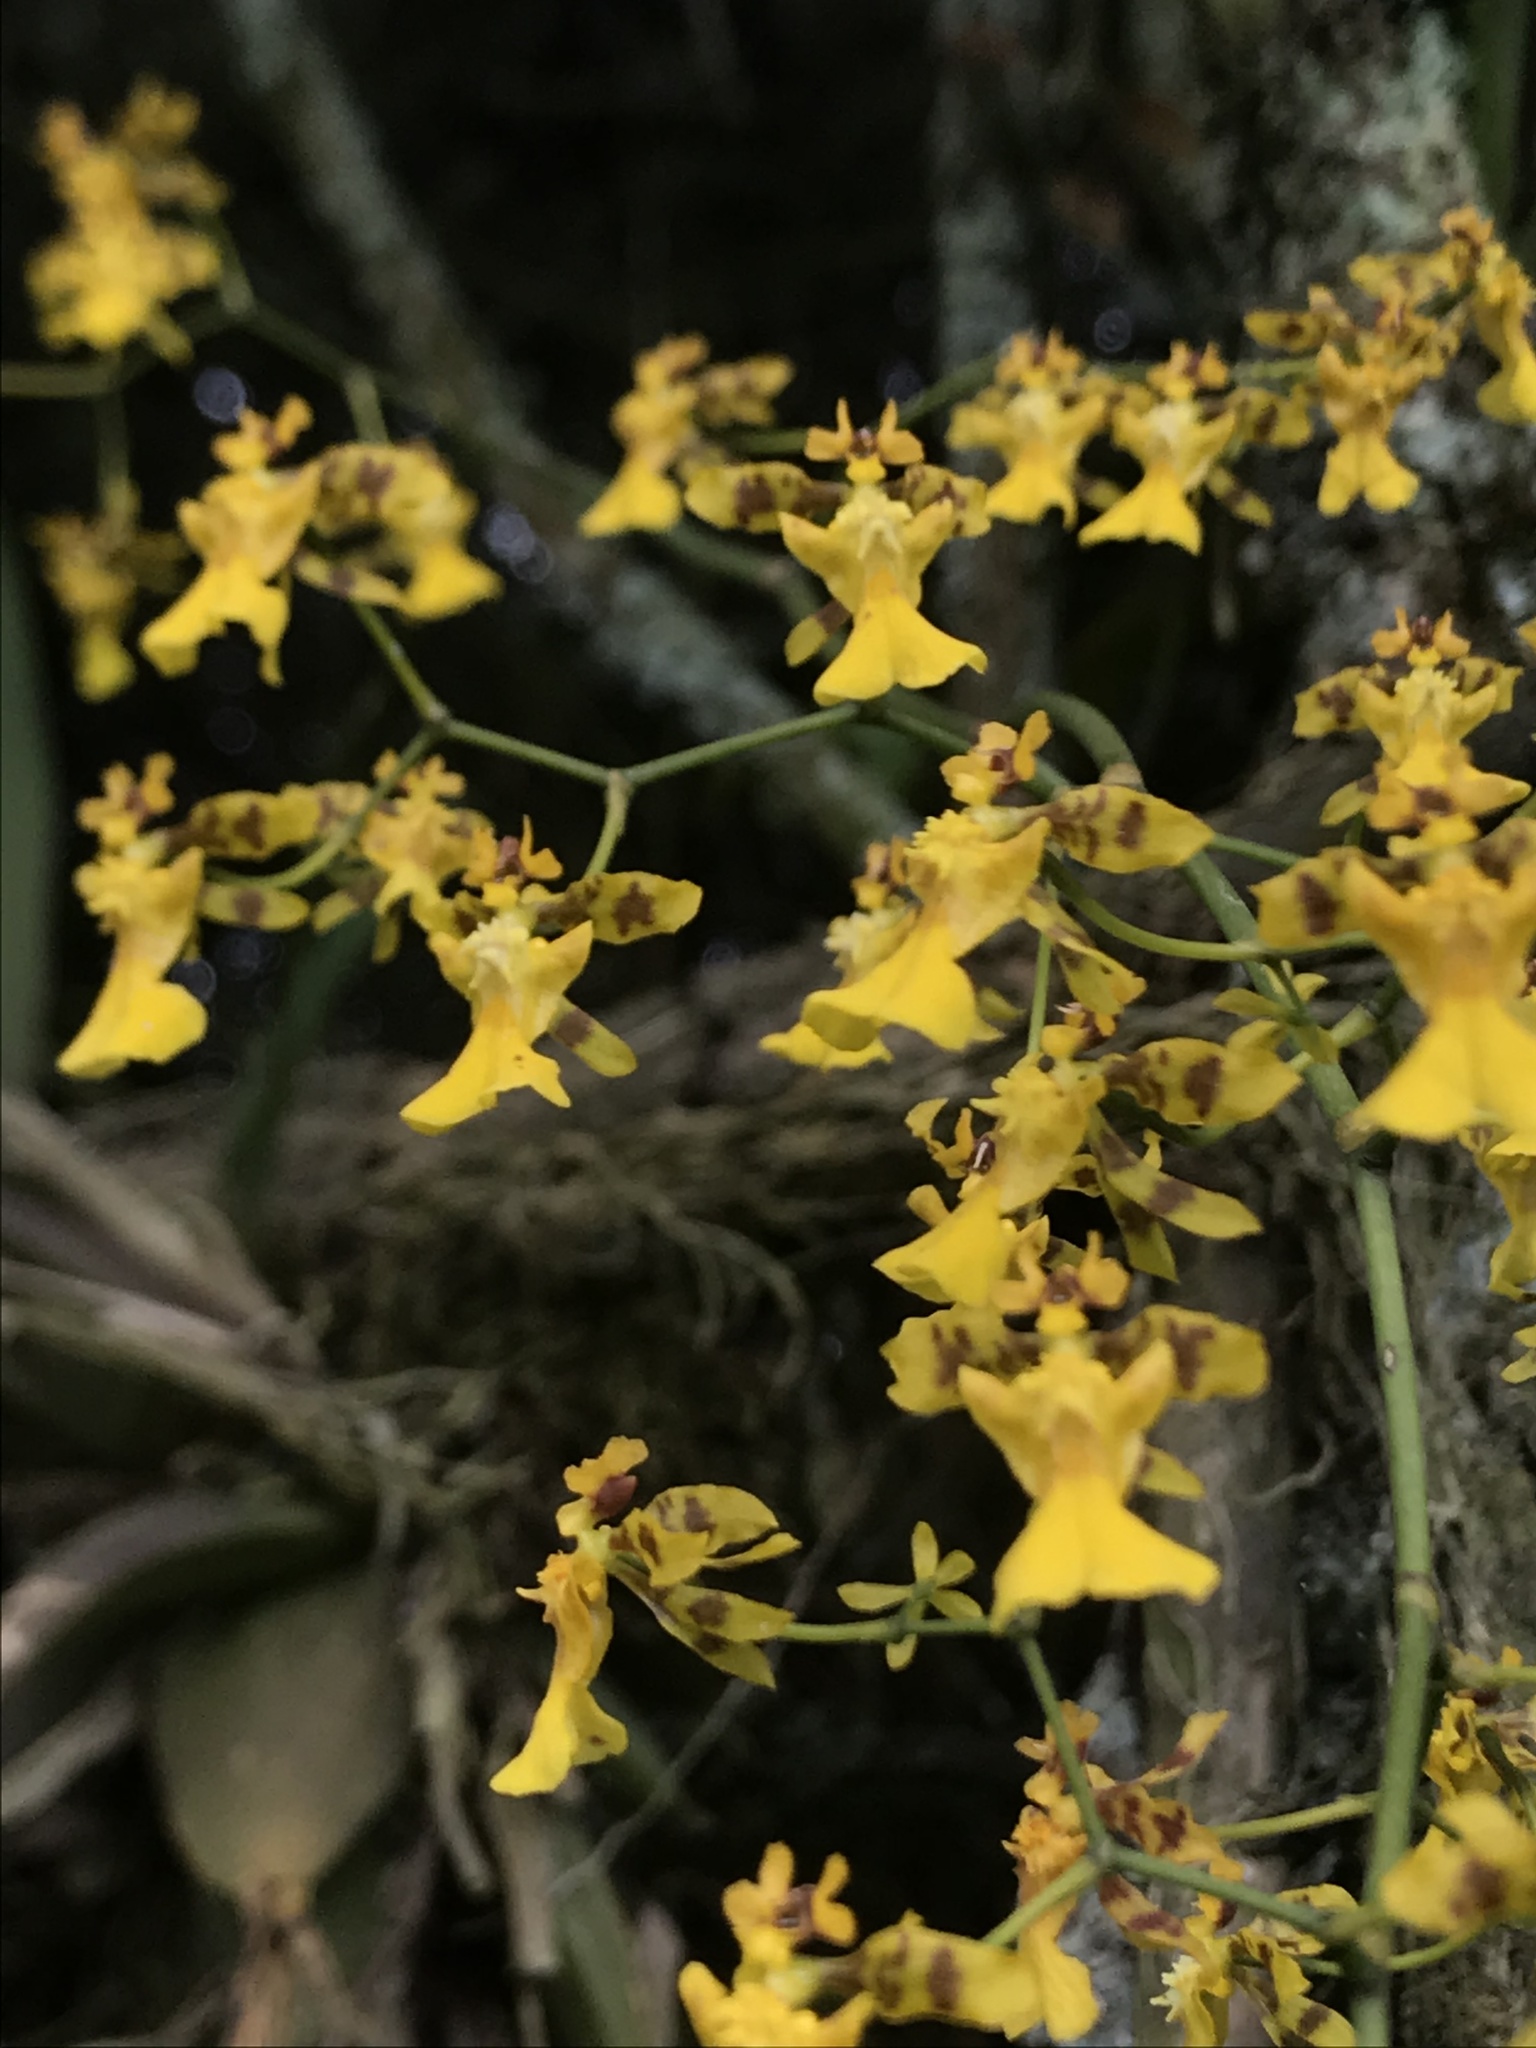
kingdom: Plantae
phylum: Tracheophyta
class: Liliopsida
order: Asparagales
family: Orchidaceae
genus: Oncidium
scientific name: Oncidium ornithorhynchum
